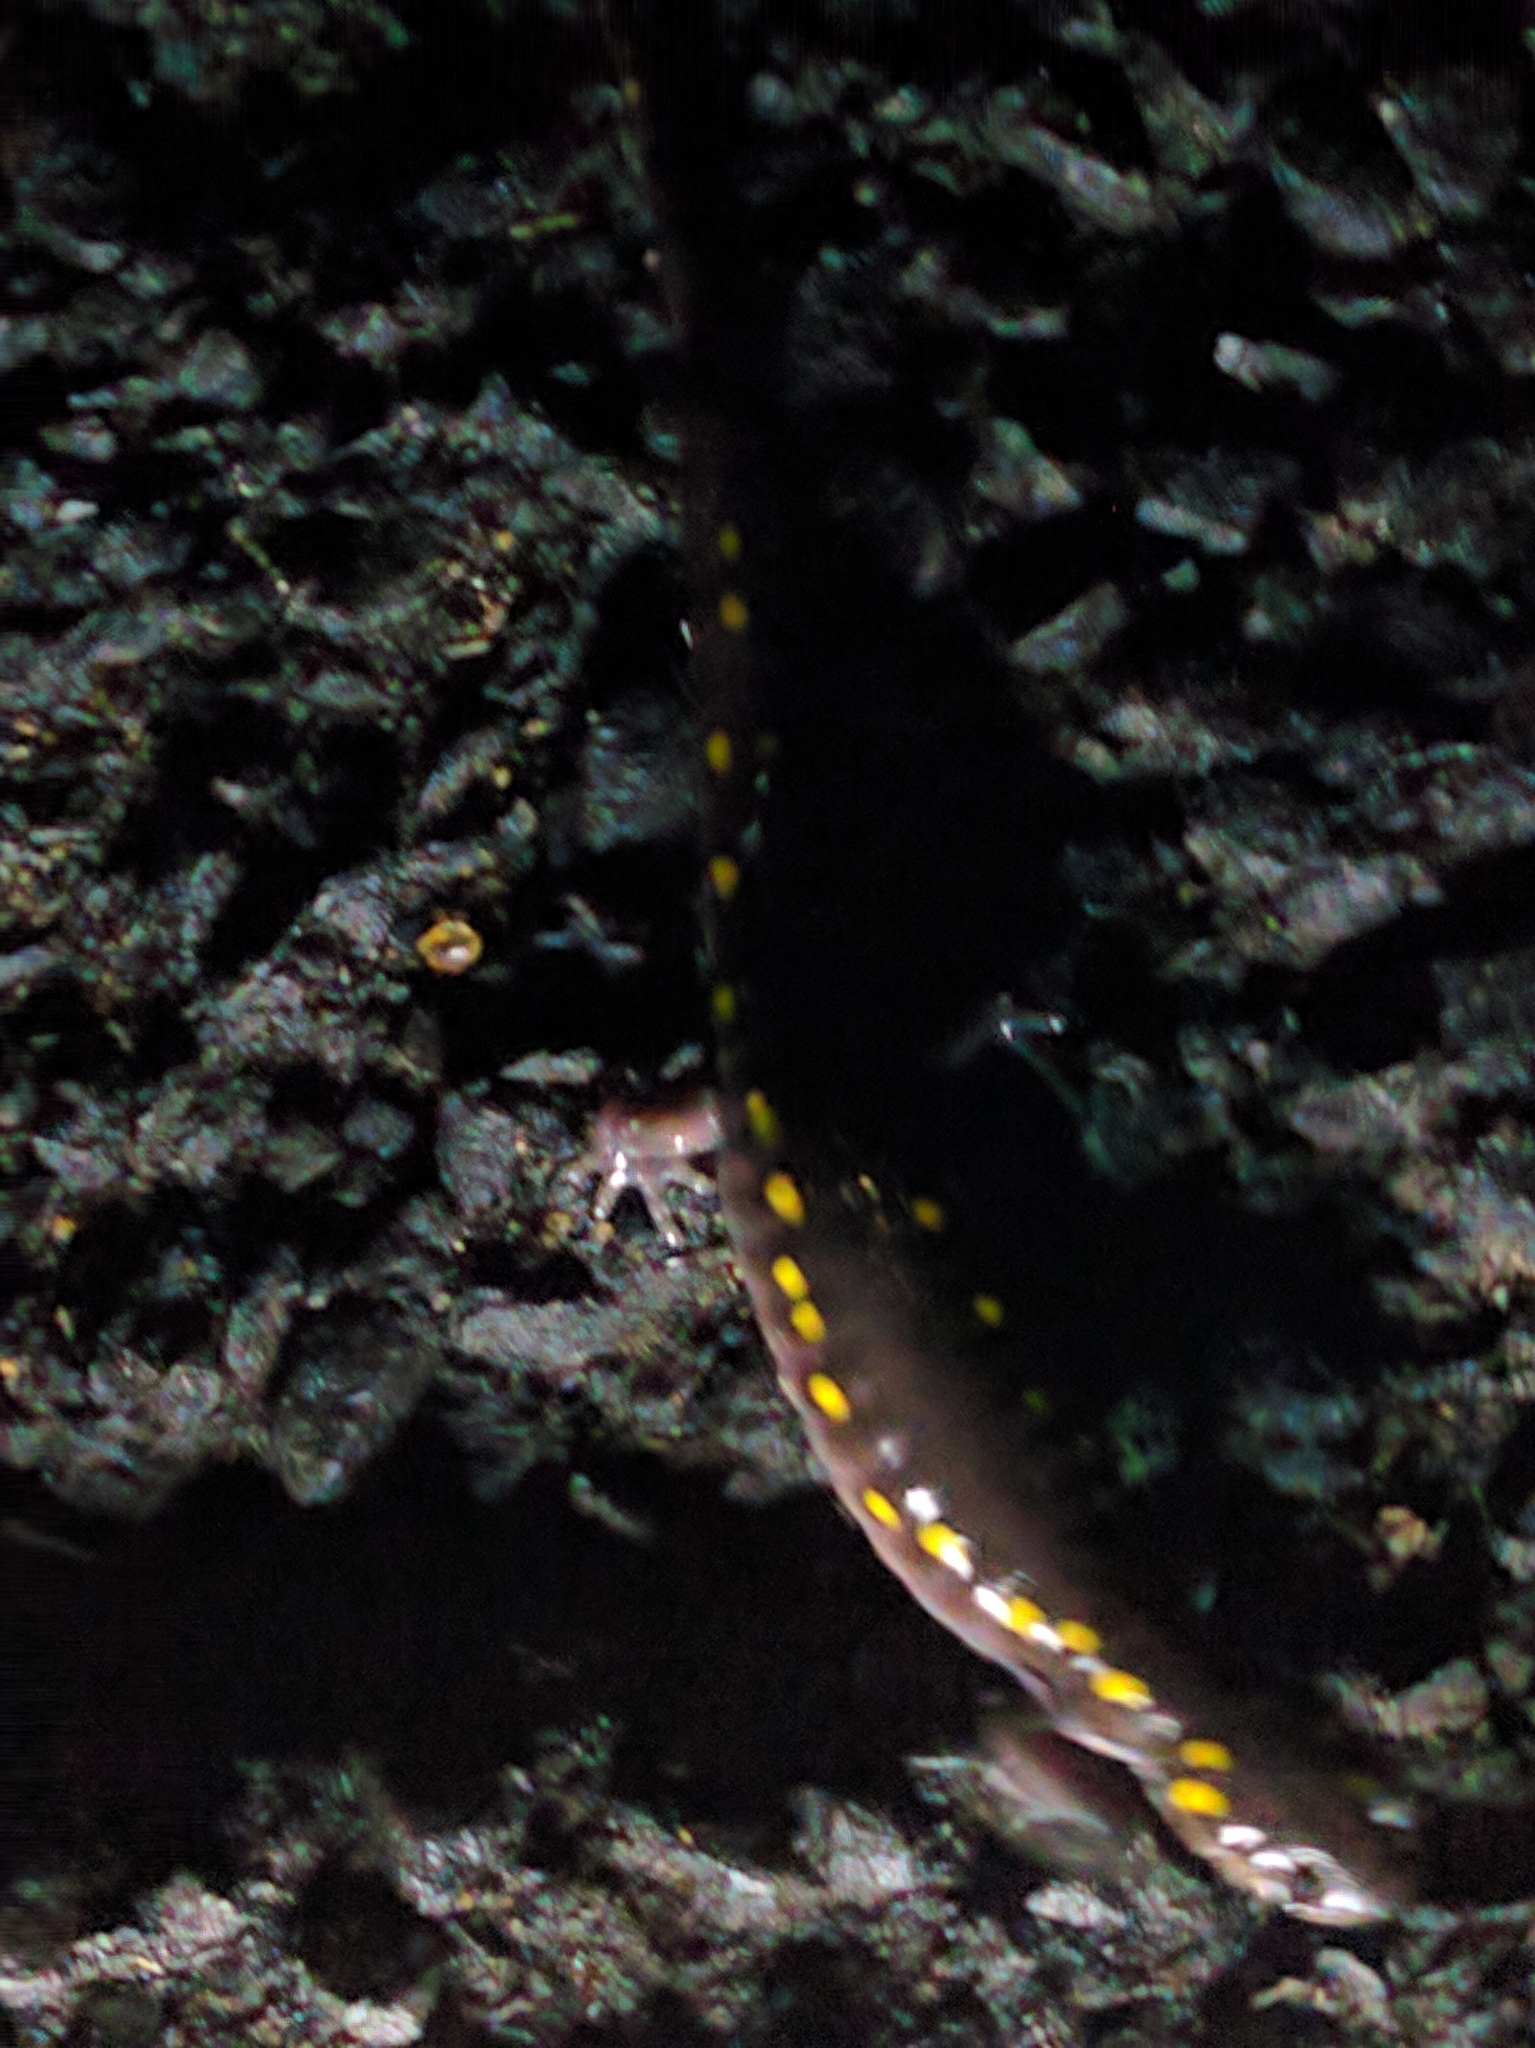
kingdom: Animalia
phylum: Chordata
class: Amphibia
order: Caudata
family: Ambystomatidae
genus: Ambystoma
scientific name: Ambystoma maculatum
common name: Spotted salamander
